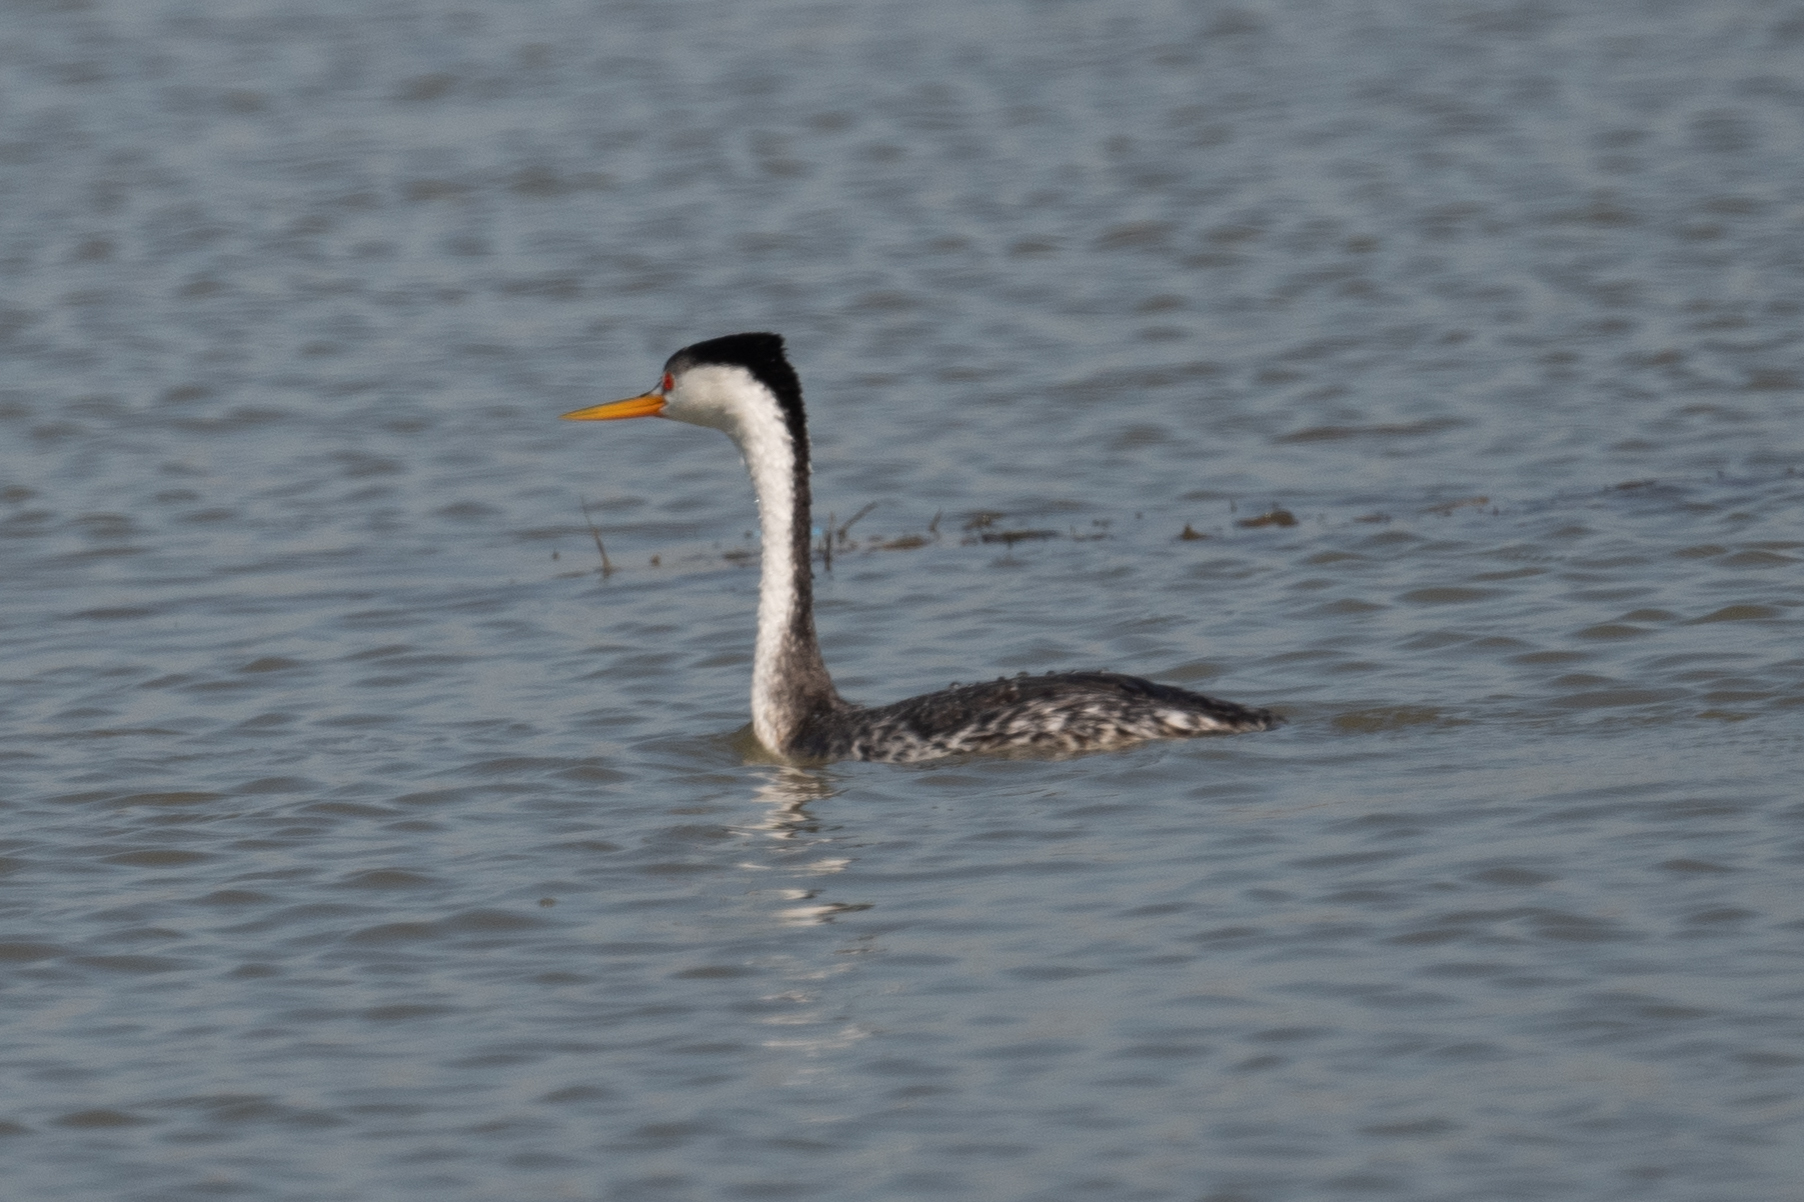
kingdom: Animalia
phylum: Chordata
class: Aves
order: Podicipediformes
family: Podicipedidae
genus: Aechmophorus
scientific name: Aechmophorus clarkii
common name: Clark's grebe
